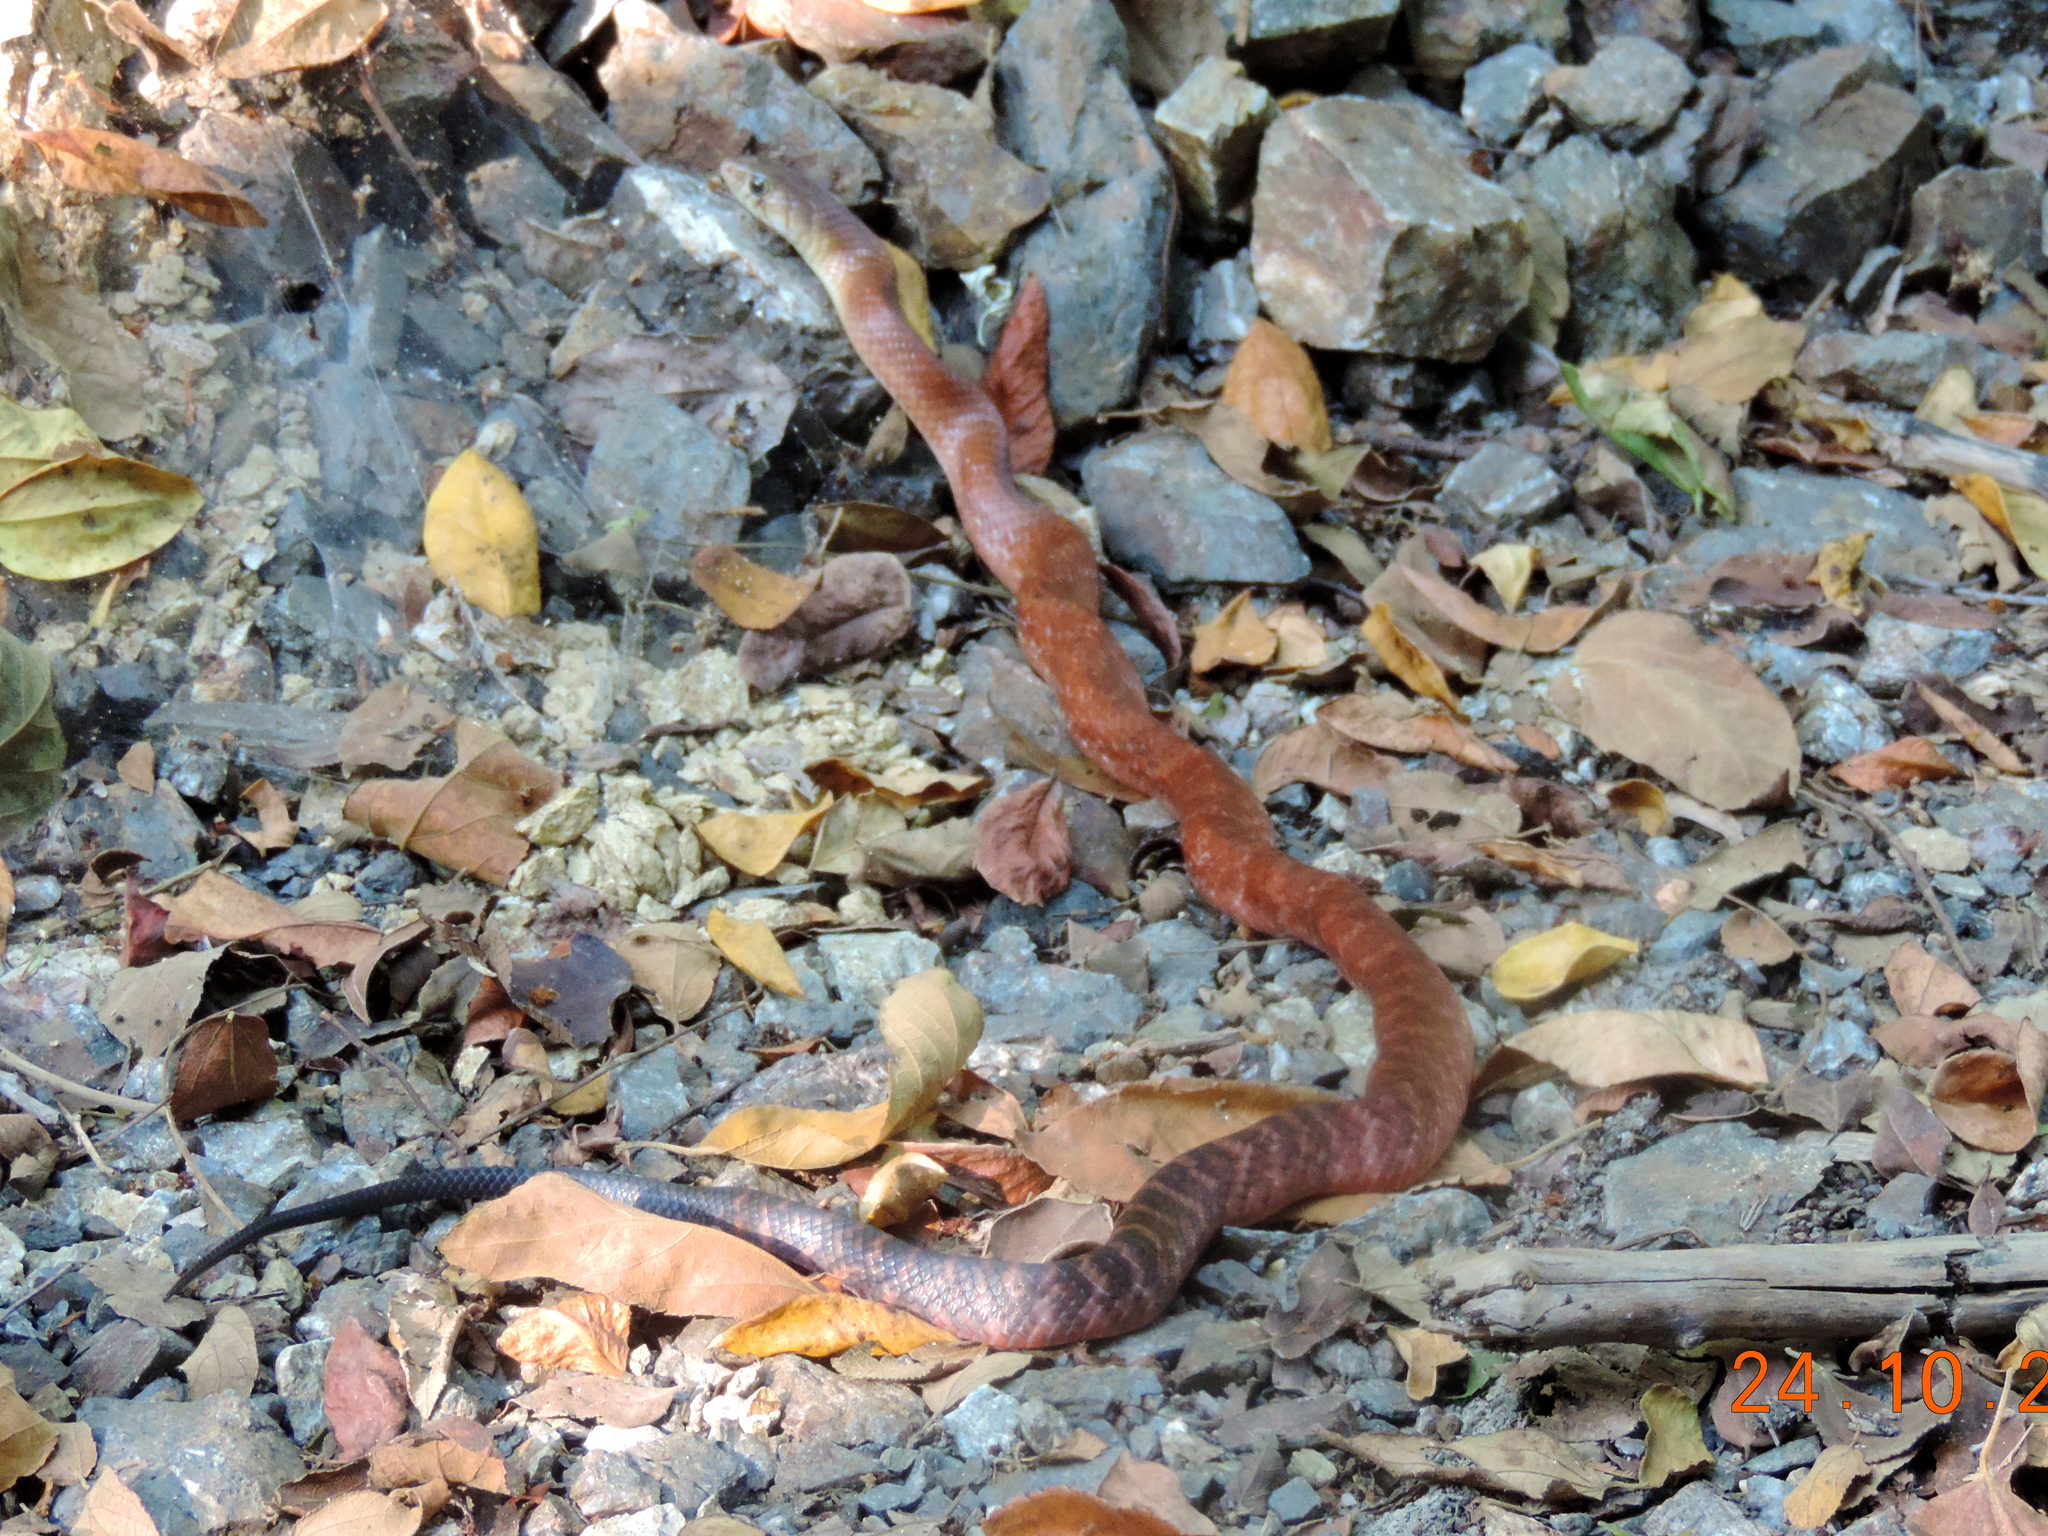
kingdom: Animalia
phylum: Chordata
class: Squamata
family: Colubridae
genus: Drymarchon
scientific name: Drymarchon melanurus
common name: Central american indigo snake
